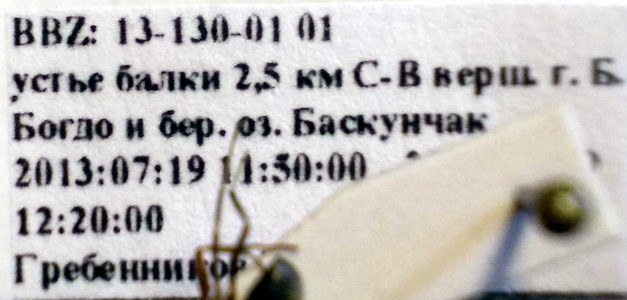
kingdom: Animalia
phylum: Arthropoda
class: Insecta
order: Hymenoptera
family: Formicidae
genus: Formica
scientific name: Formica subpilosa
